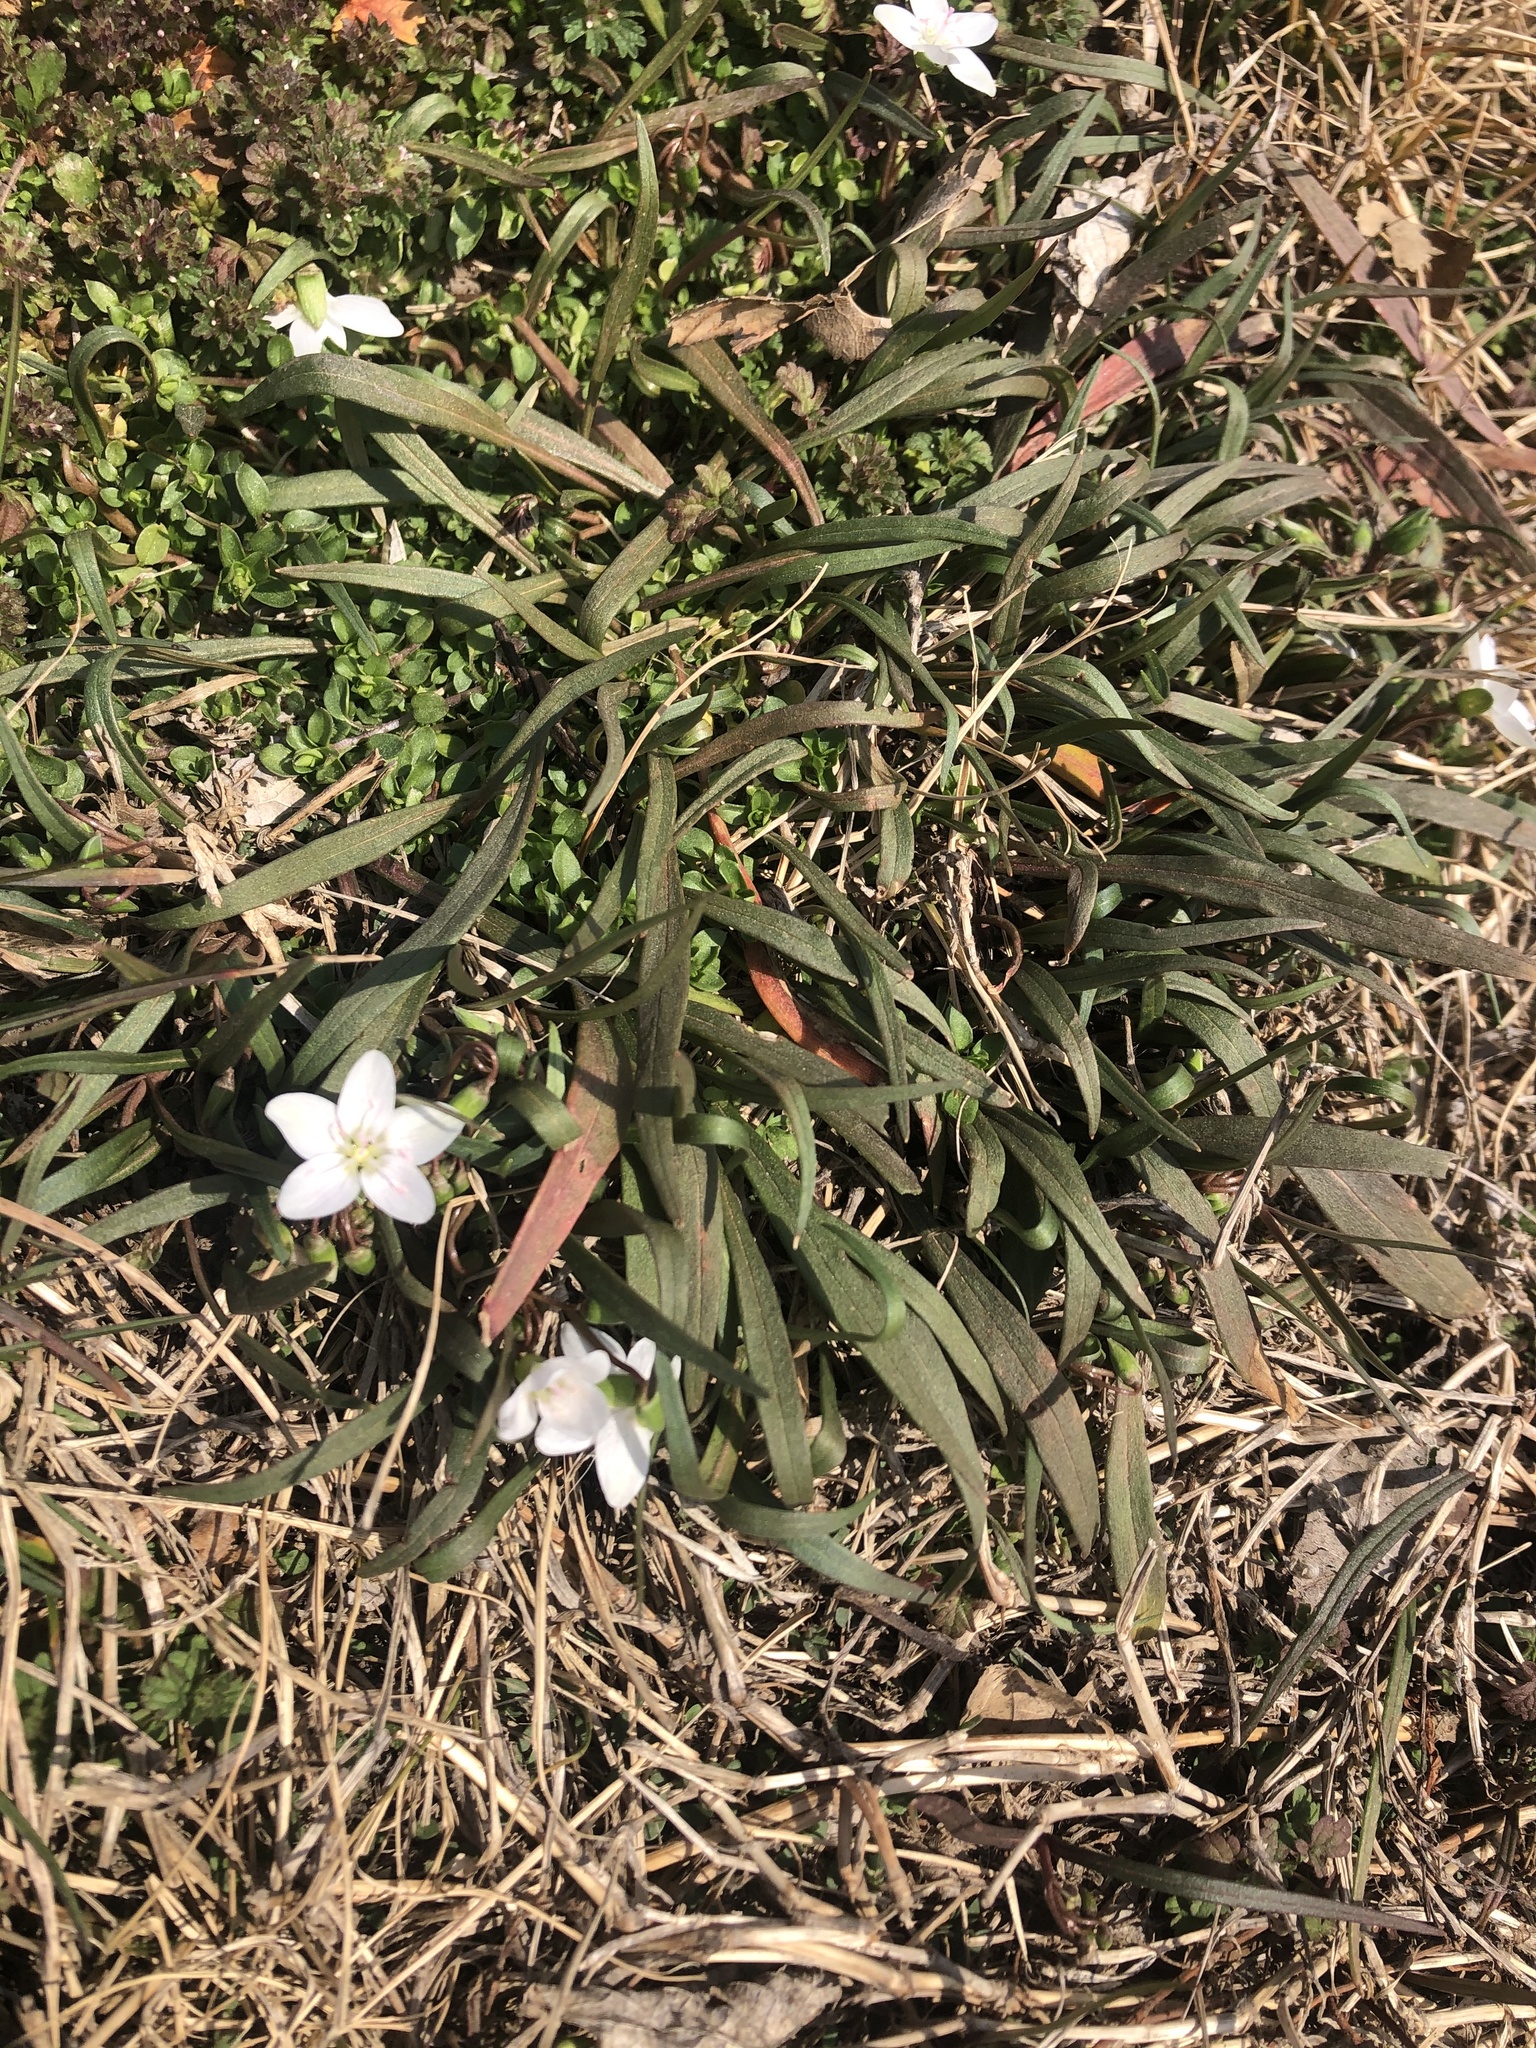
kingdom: Plantae
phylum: Tracheophyta
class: Magnoliopsida
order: Caryophyllales
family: Montiaceae
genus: Claytonia
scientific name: Claytonia virginica
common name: Virginia springbeauty
